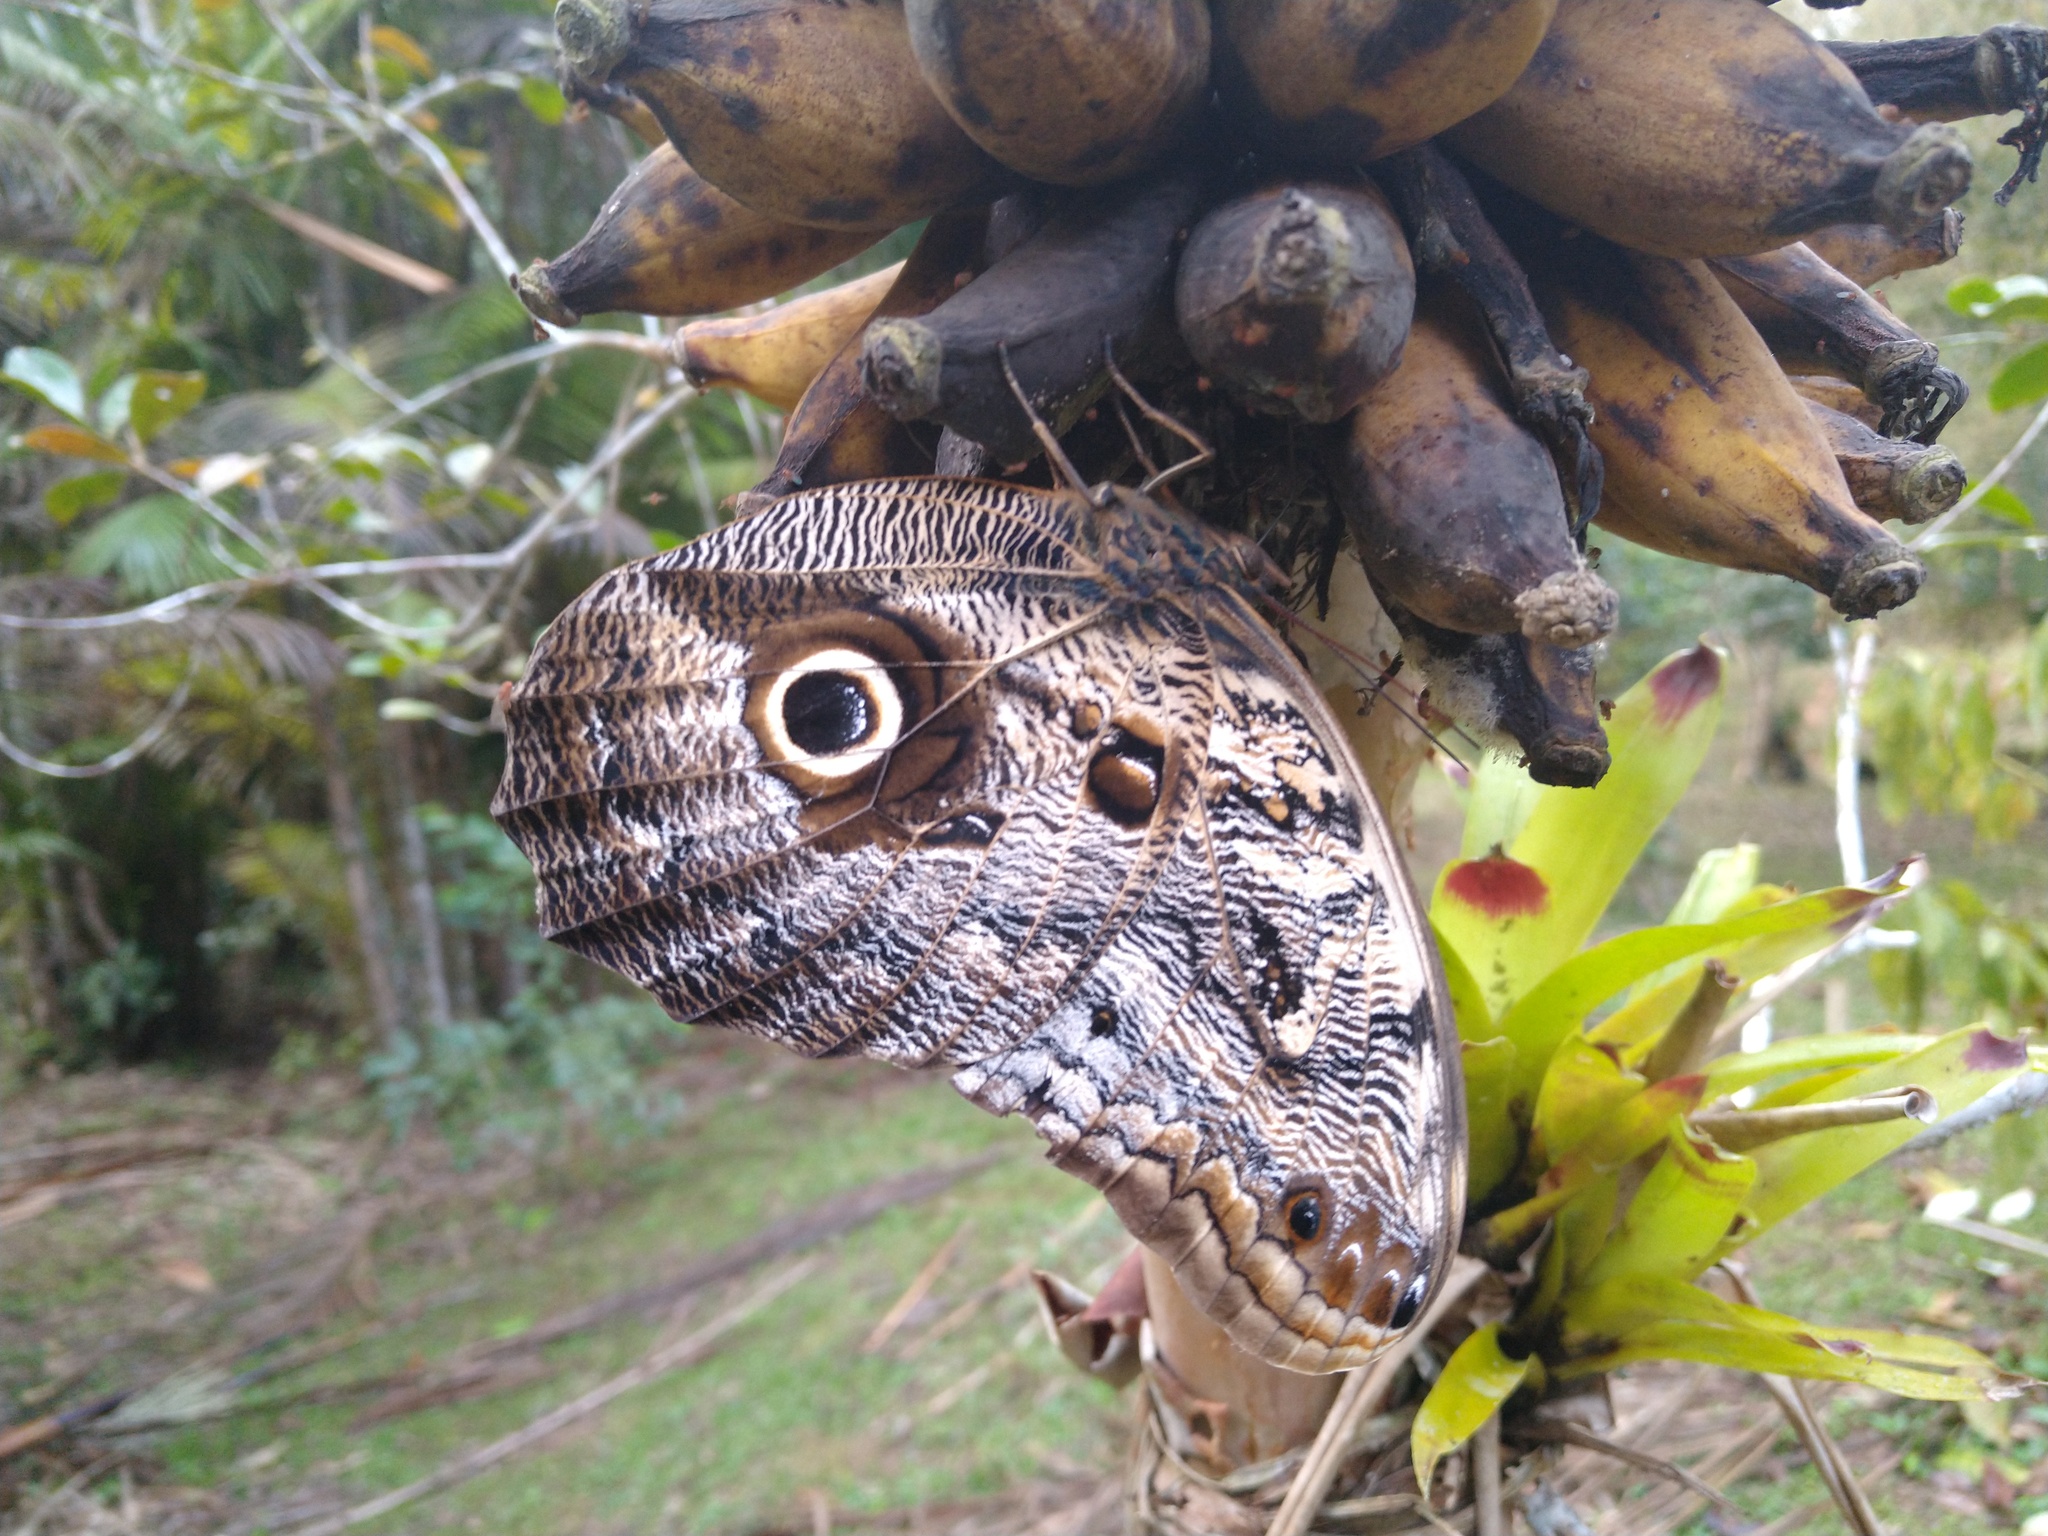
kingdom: Animalia
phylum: Arthropoda
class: Insecta
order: Lepidoptera
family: Nymphalidae
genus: Caligo
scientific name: Caligo brasiliensis
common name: Dark owl-butterfly
